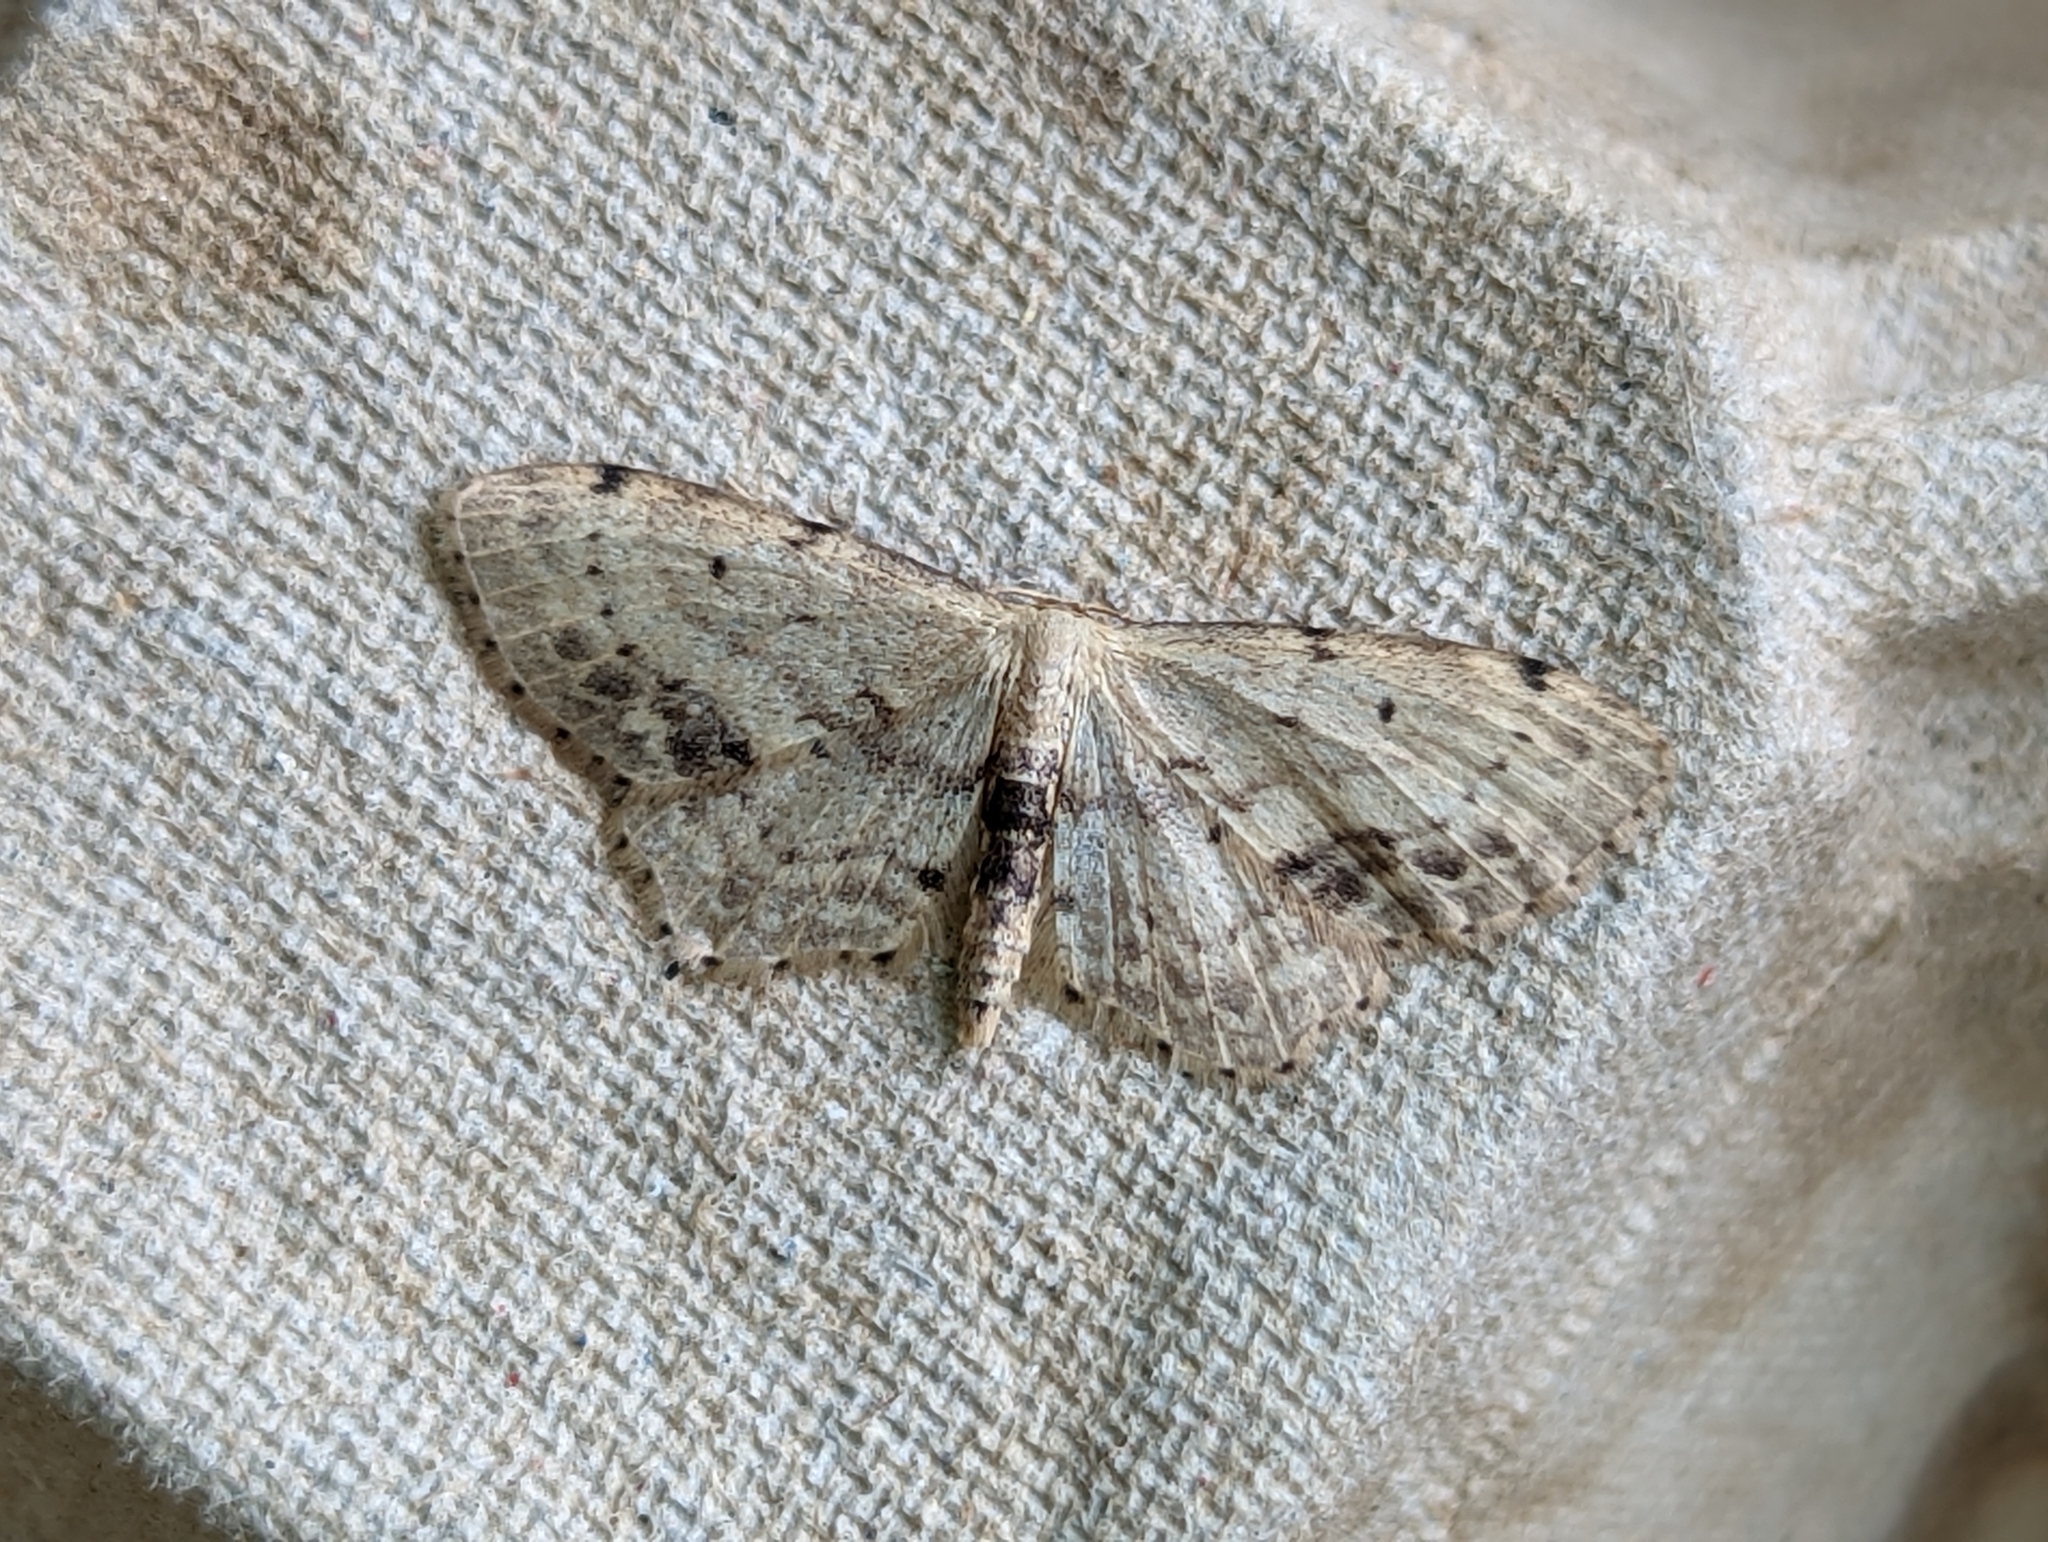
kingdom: Animalia
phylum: Arthropoda
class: Insecta
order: Lepidoptera
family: Geometridae
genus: Idaea
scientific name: Idaea dimidiata
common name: Single-dotted wave
